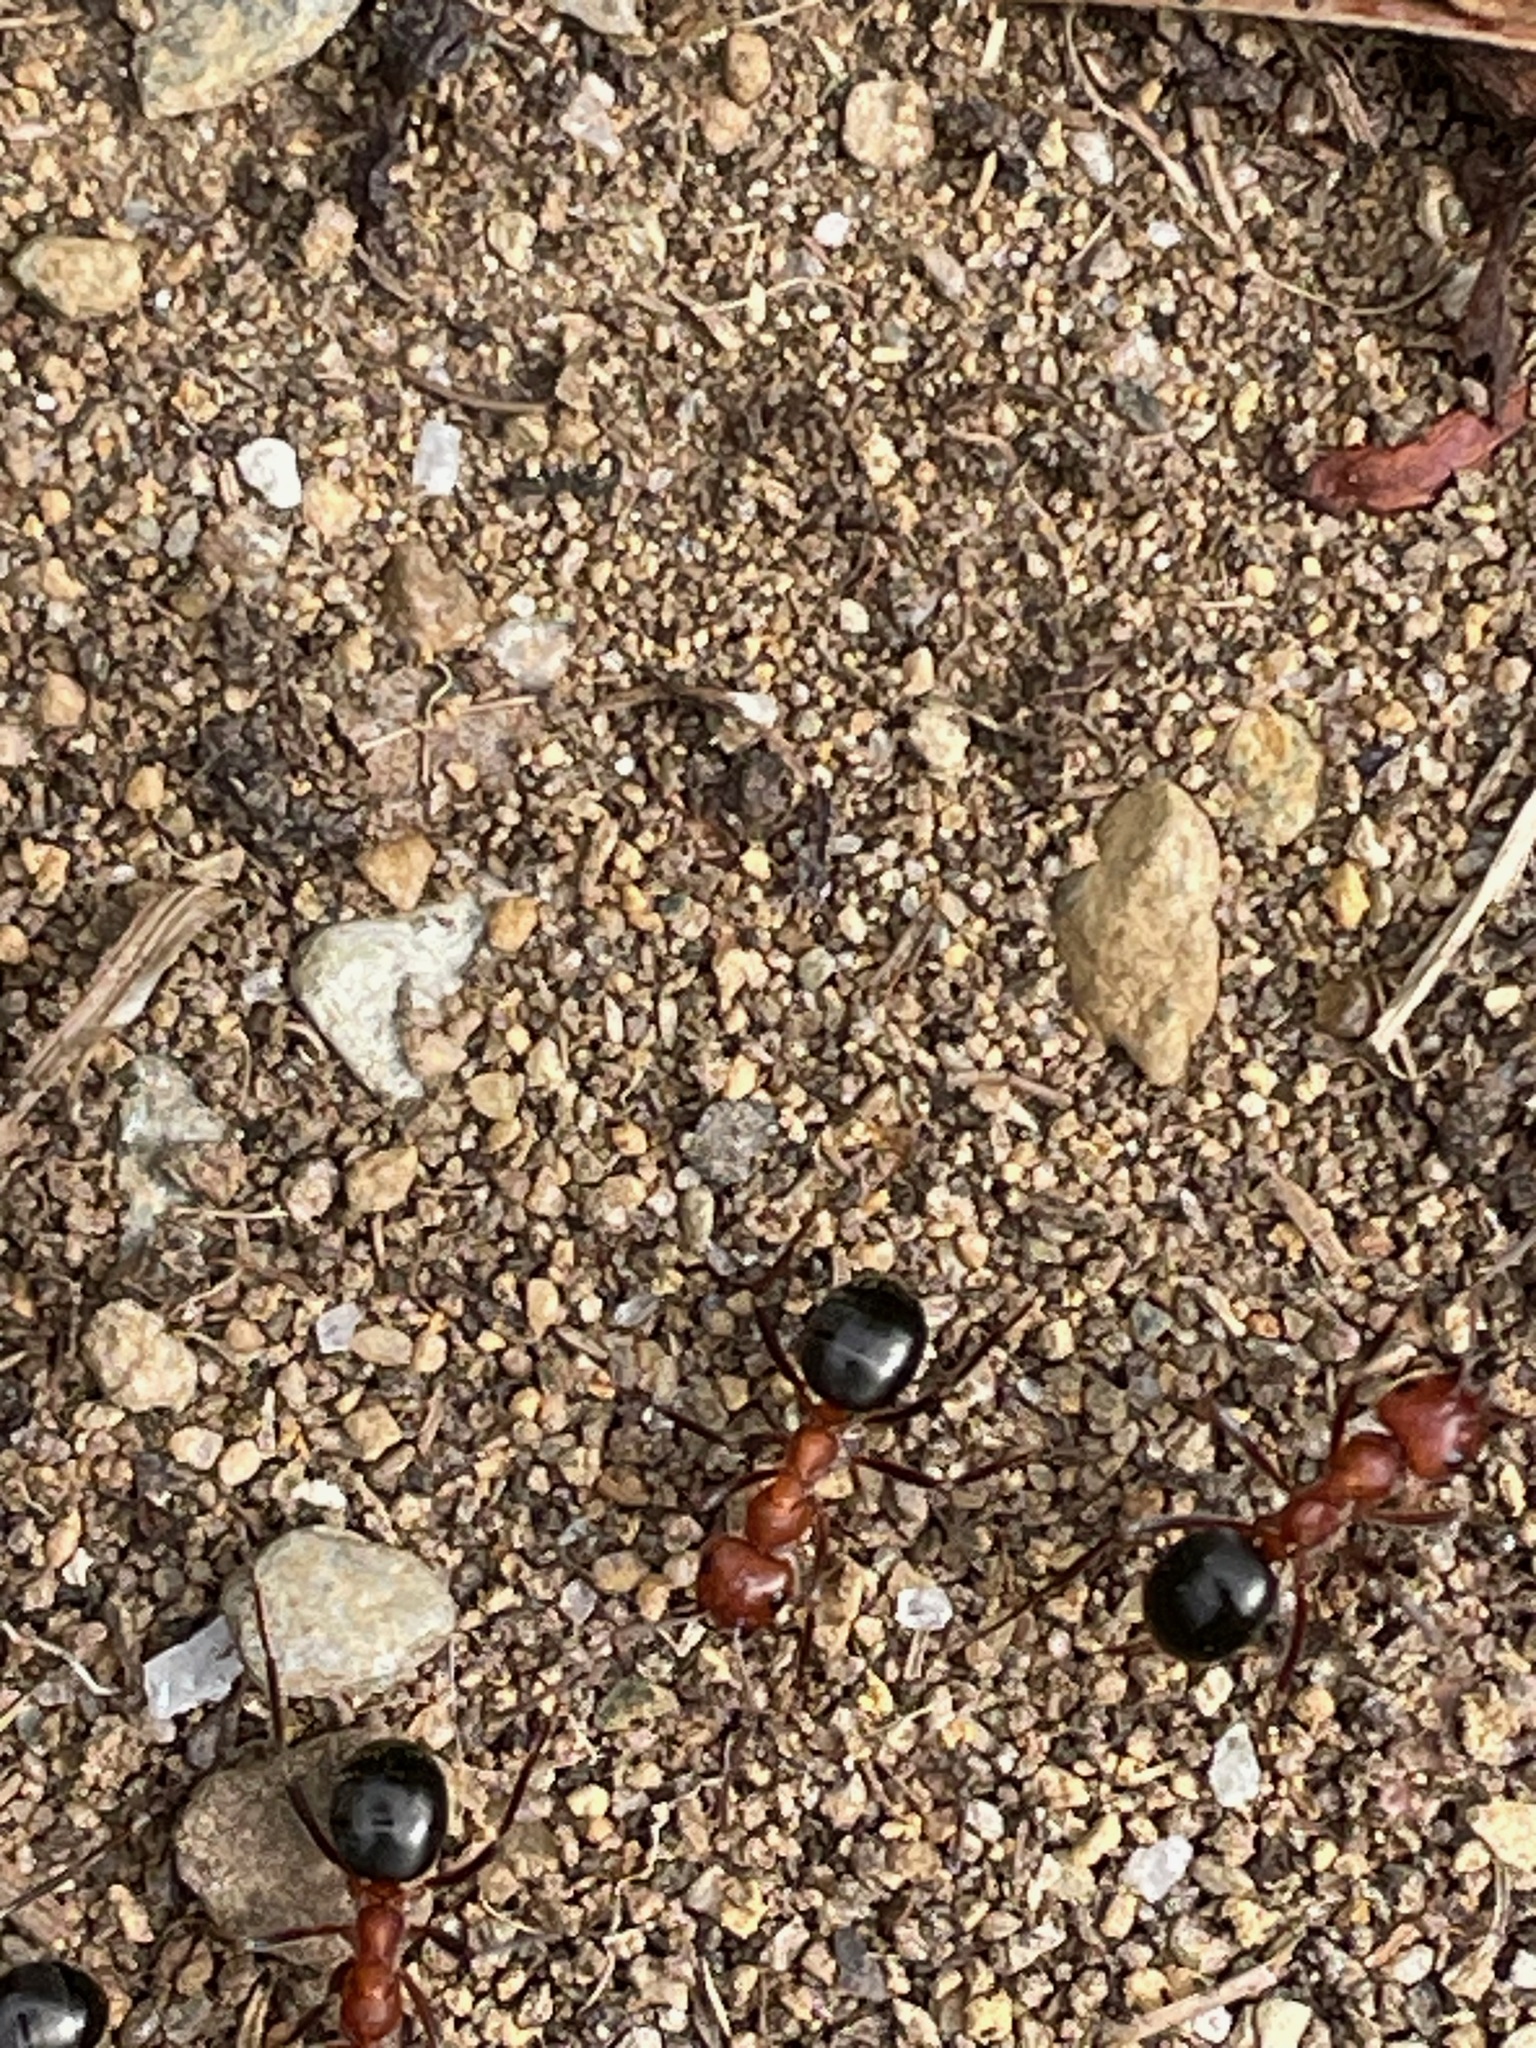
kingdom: Animalia
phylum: Arthropoda
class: Insecta
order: Hymenoptera
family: Formicidae
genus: Formica
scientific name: Formica exsectoides
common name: Allegheny mound ant
